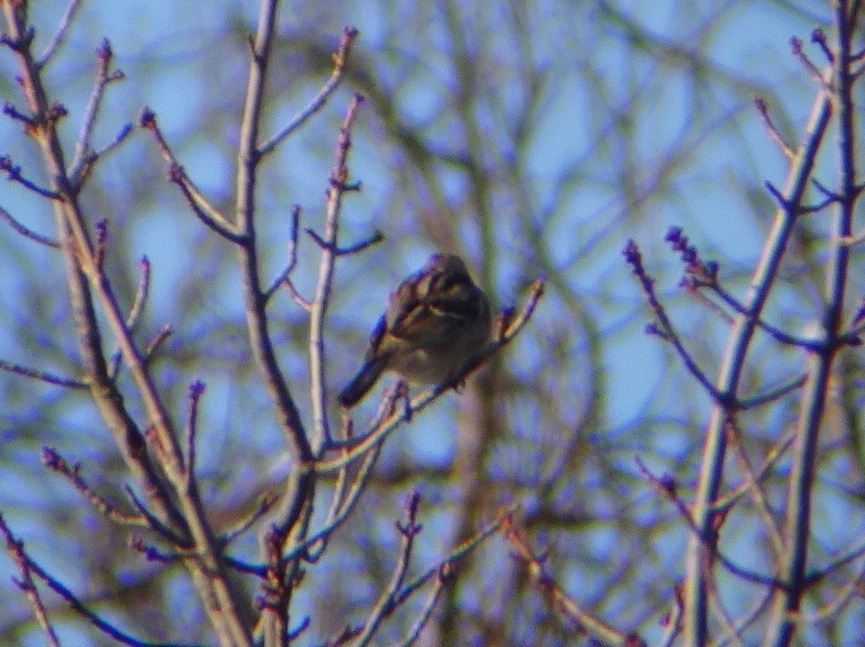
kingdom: Animalia
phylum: Chordata
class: Aves
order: Passeriformes
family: Passerellidae
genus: Spizelloides
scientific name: Spizelloides arborea
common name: American tree sparrow
